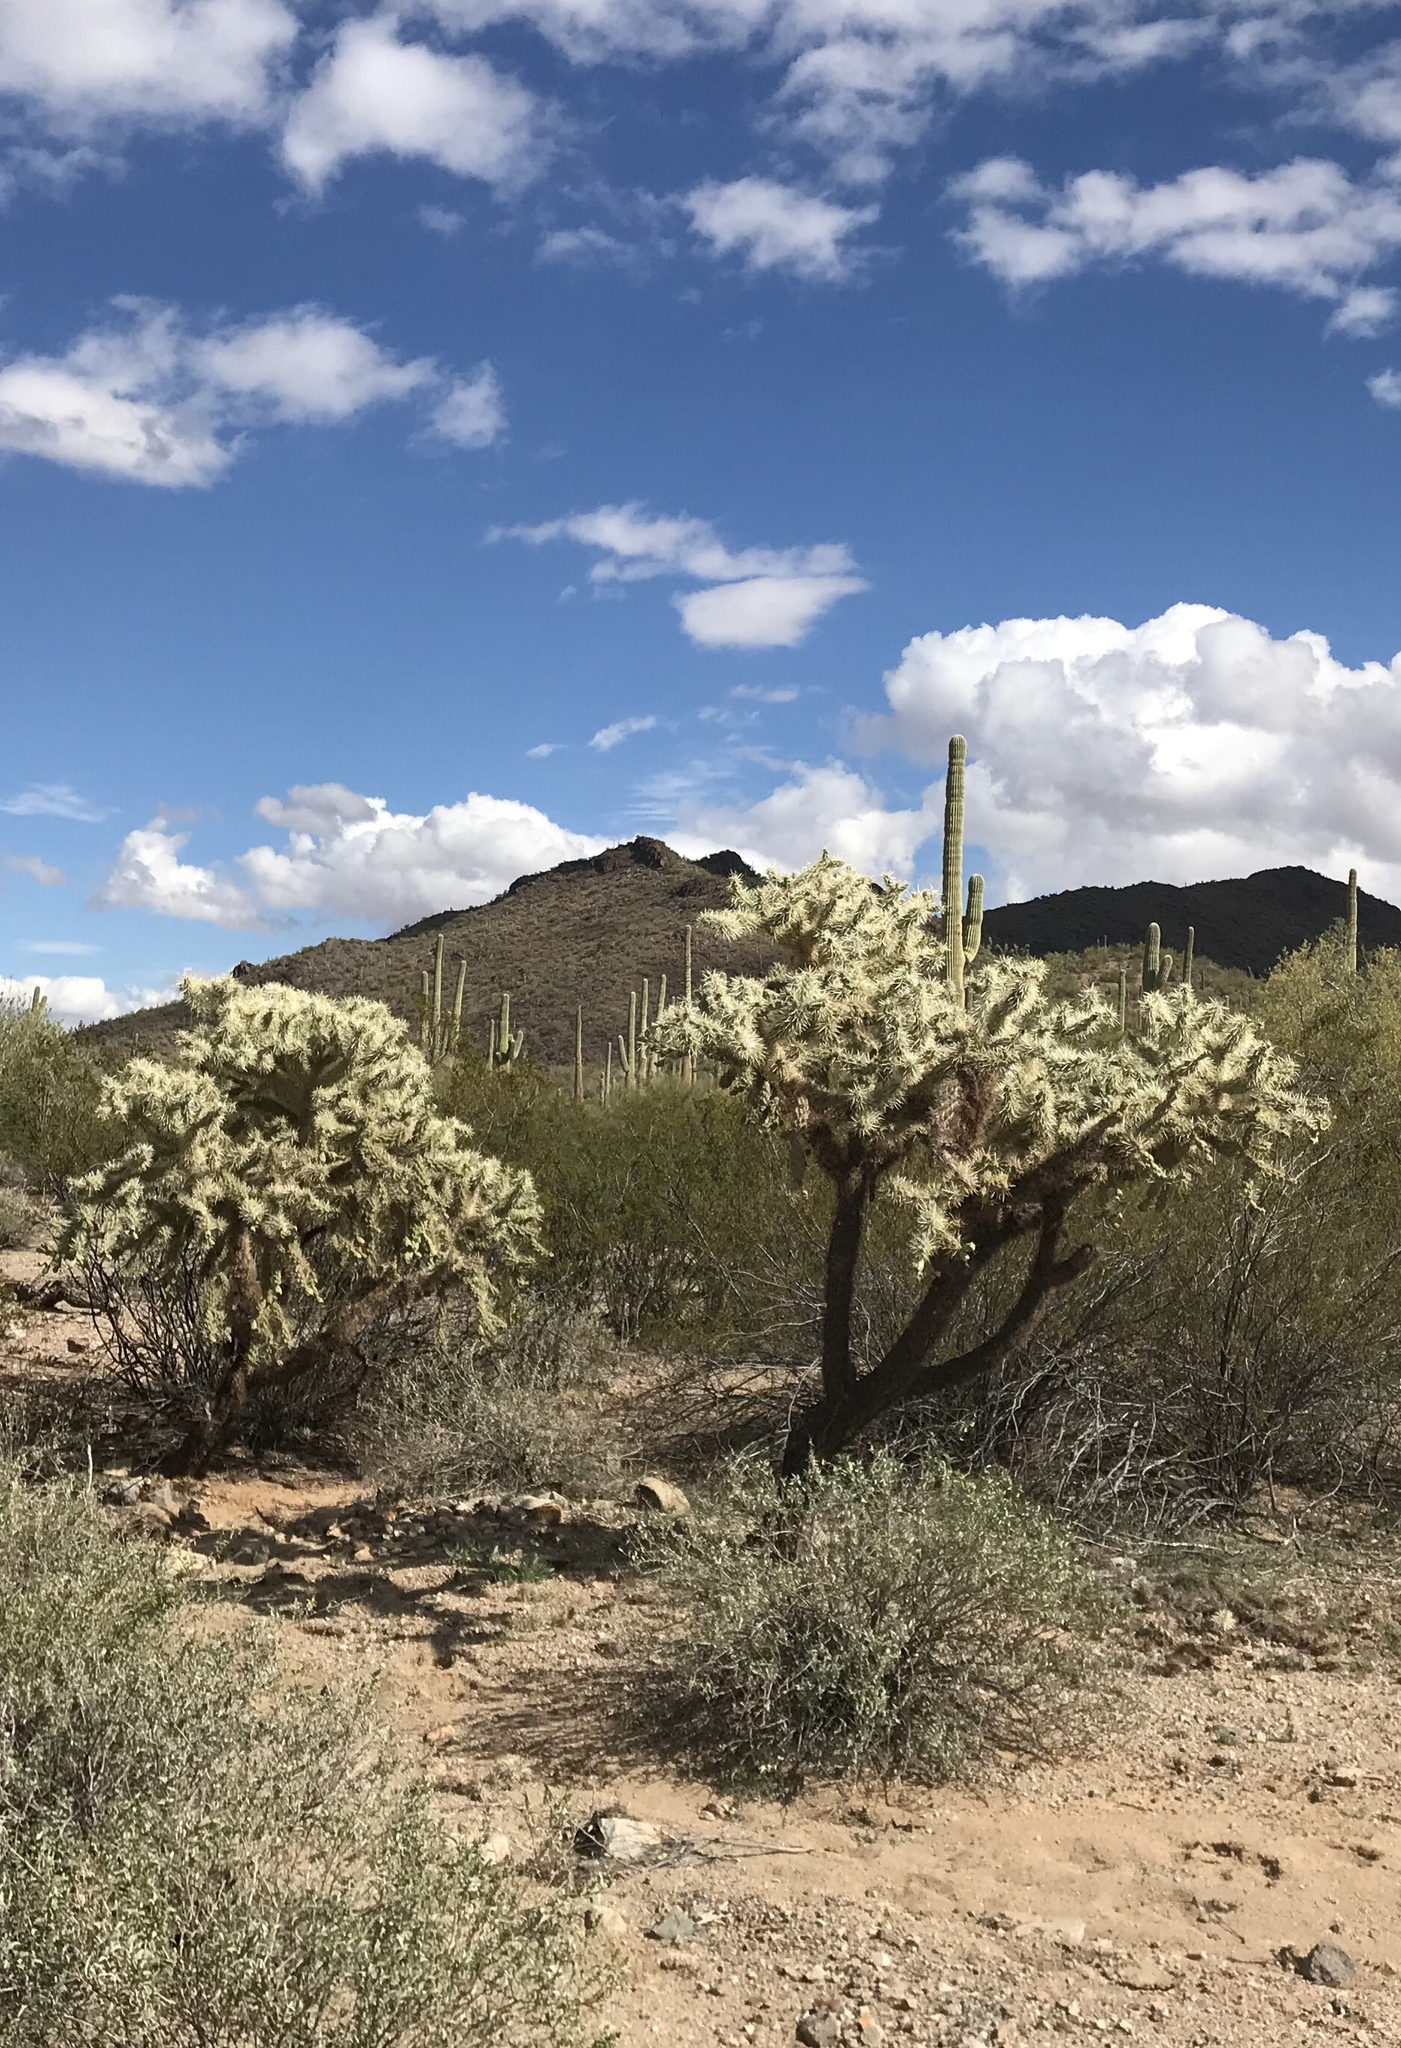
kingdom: Plantae
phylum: Tracheophyta
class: Magnoliopsida
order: Caryophyllales
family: Cactaceae
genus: Cylindropuntia
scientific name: Cylindropuntia fulgida
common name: Jumping cholla
